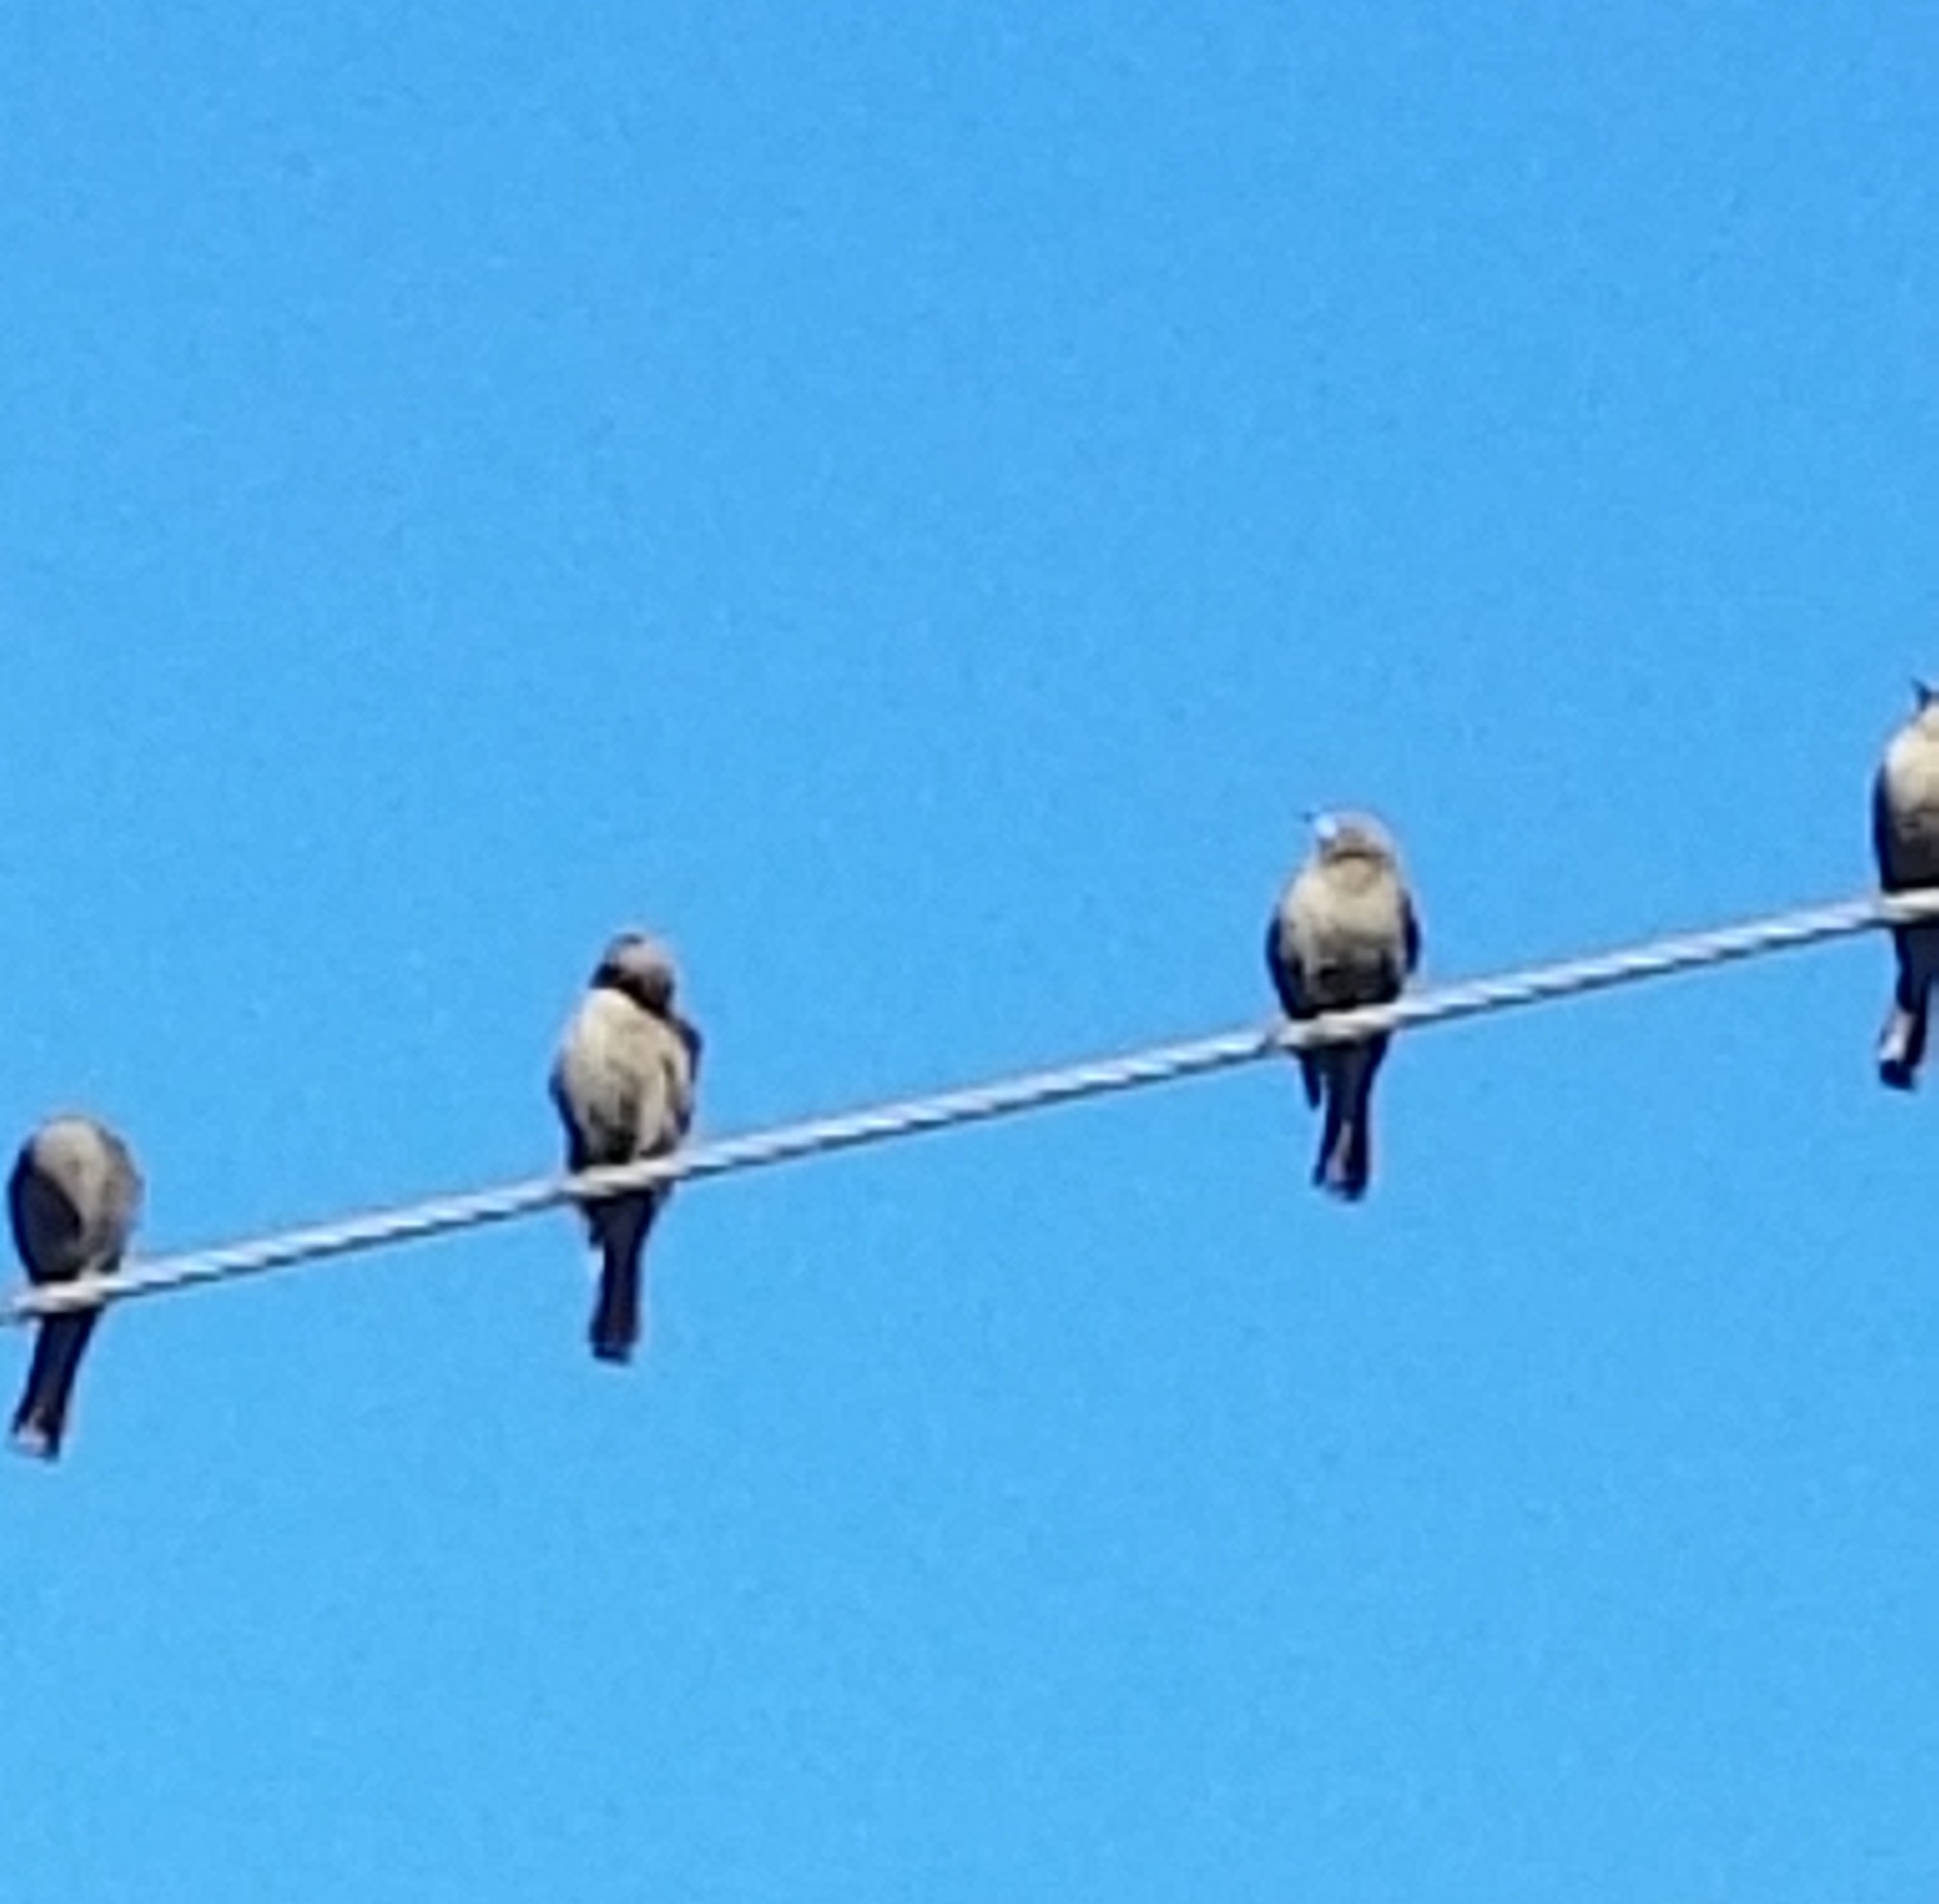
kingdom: Animalia
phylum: Chordata
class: Aves
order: Passeriformes
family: Icteridae
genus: Euphagus
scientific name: Euphagus cyanocephalus
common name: Brewer's blackbird
